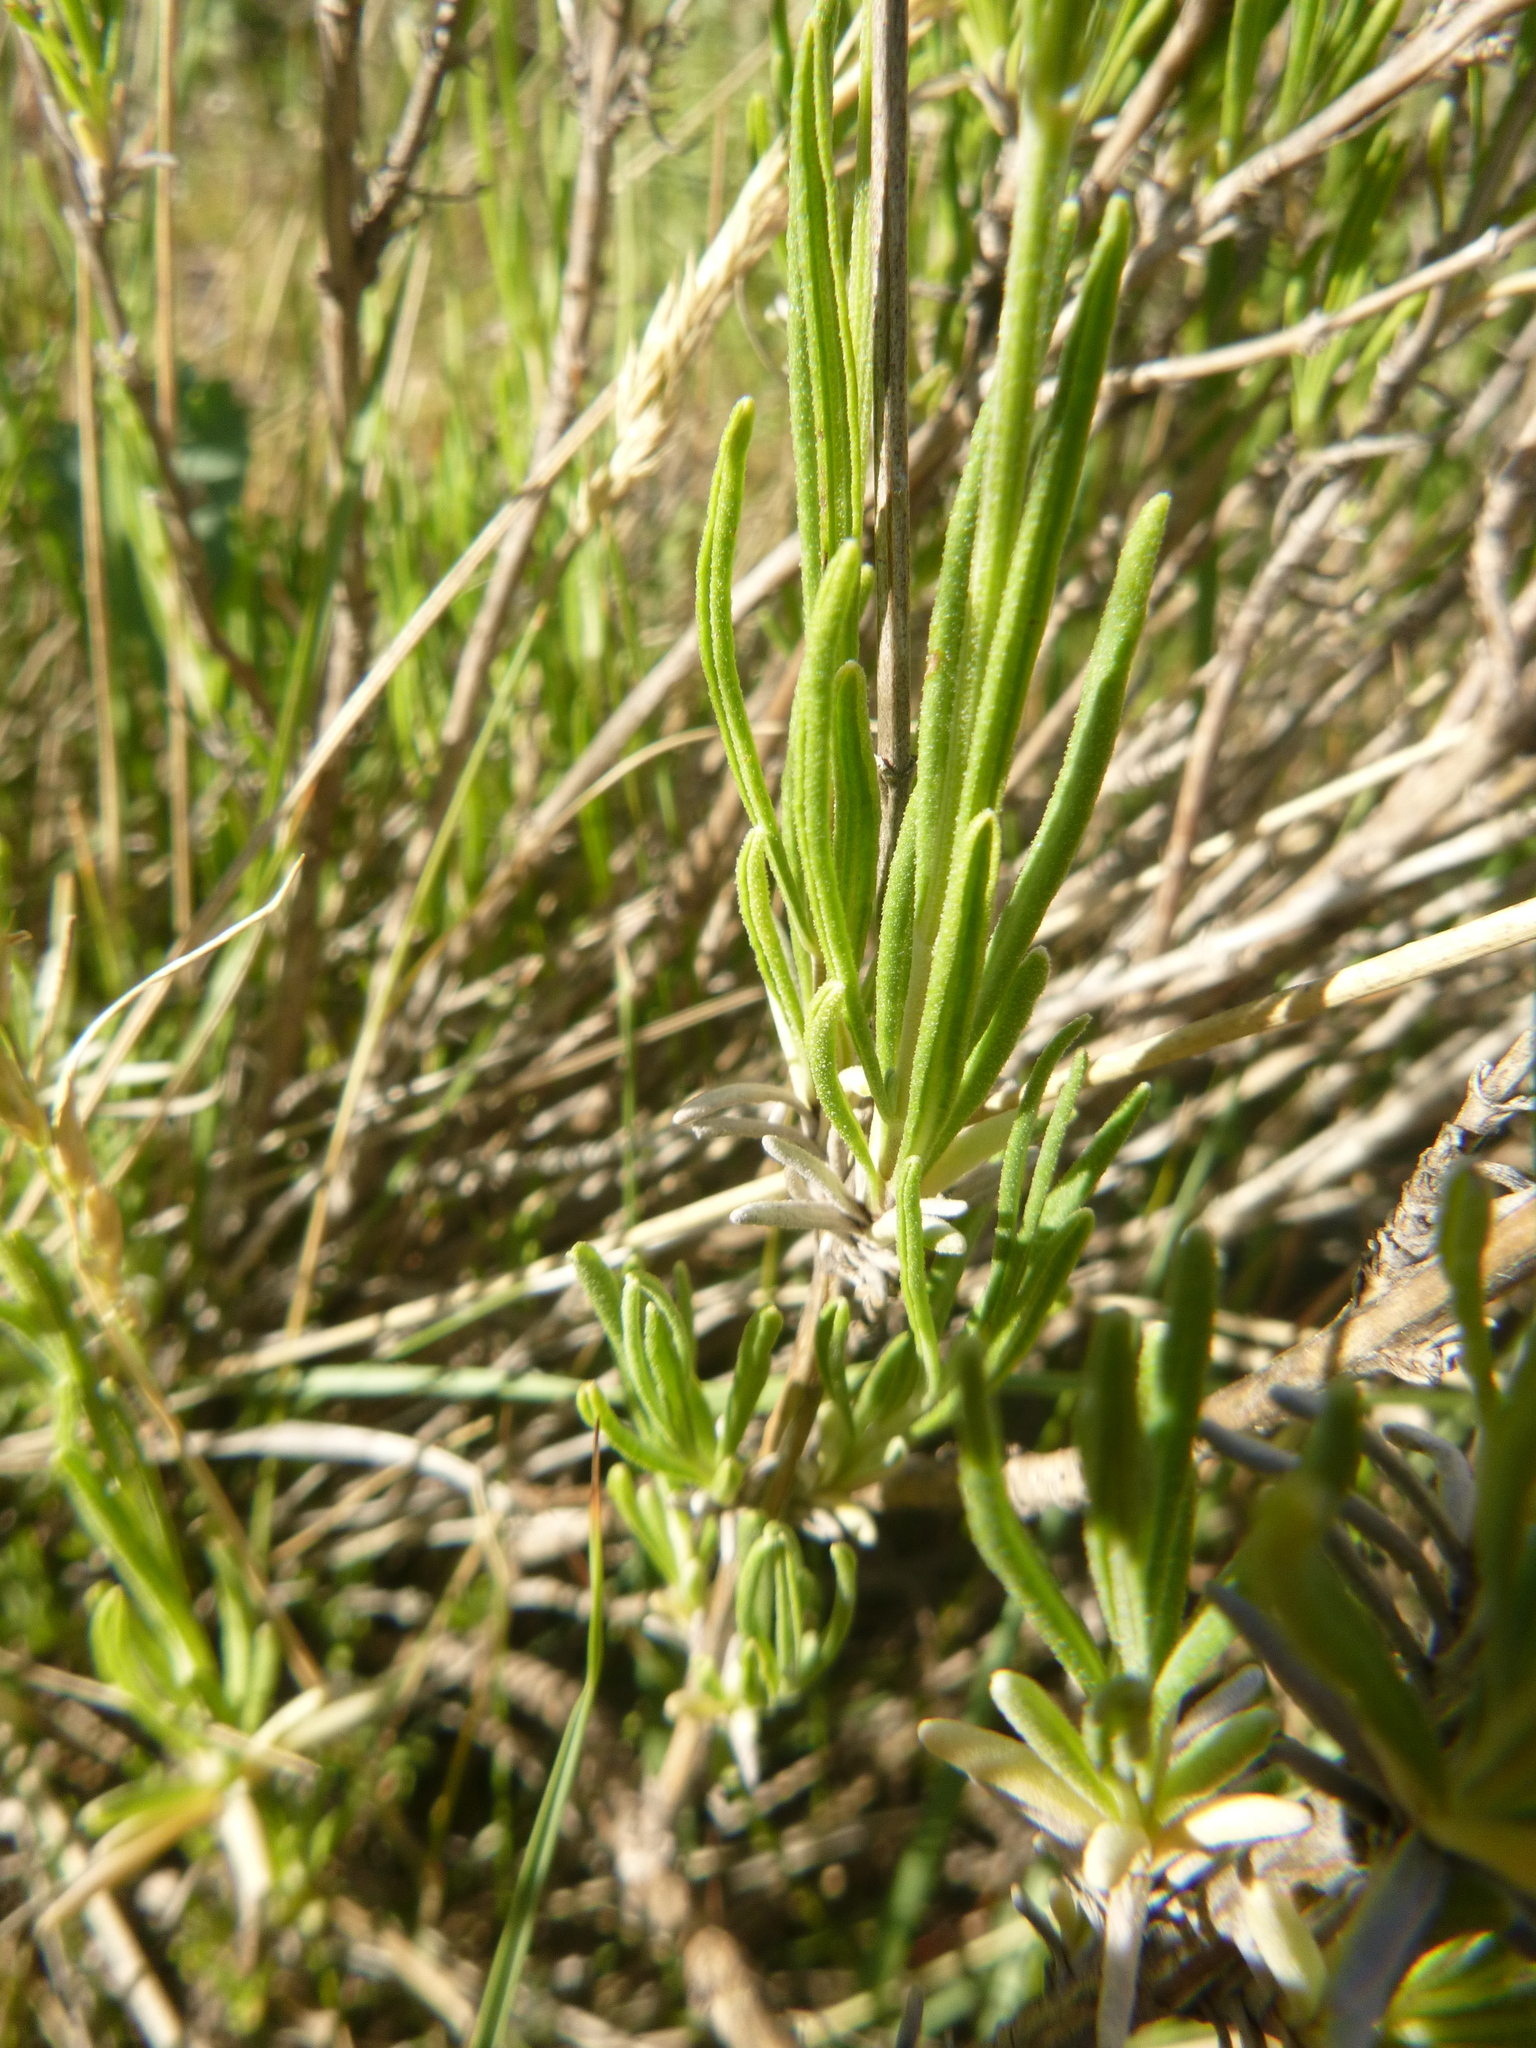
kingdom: Plantae
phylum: Tracheophyta
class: Magnoliopsida
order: Lamiales
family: Lamiaceae
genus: Lavandula
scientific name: Lavandula angustifolia
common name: Garden lavender
